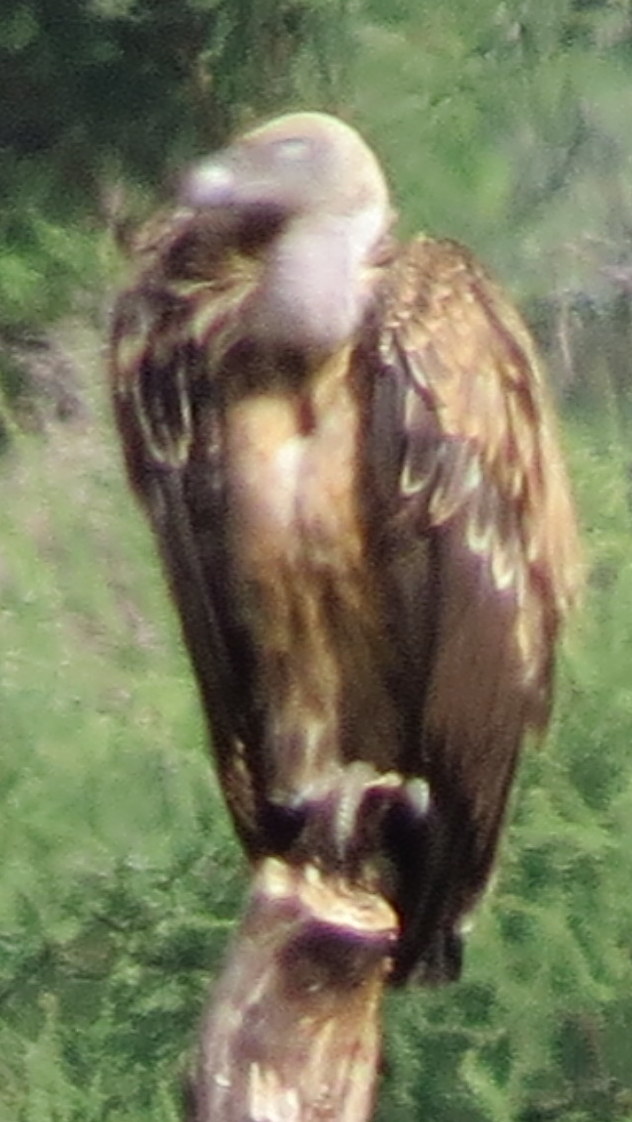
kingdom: Animalia
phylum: Chordata
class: Aves
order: Accipitriformes
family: Accipitridae
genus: Gyps
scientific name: Gyps rueppellii
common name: Rüppell's vulture
